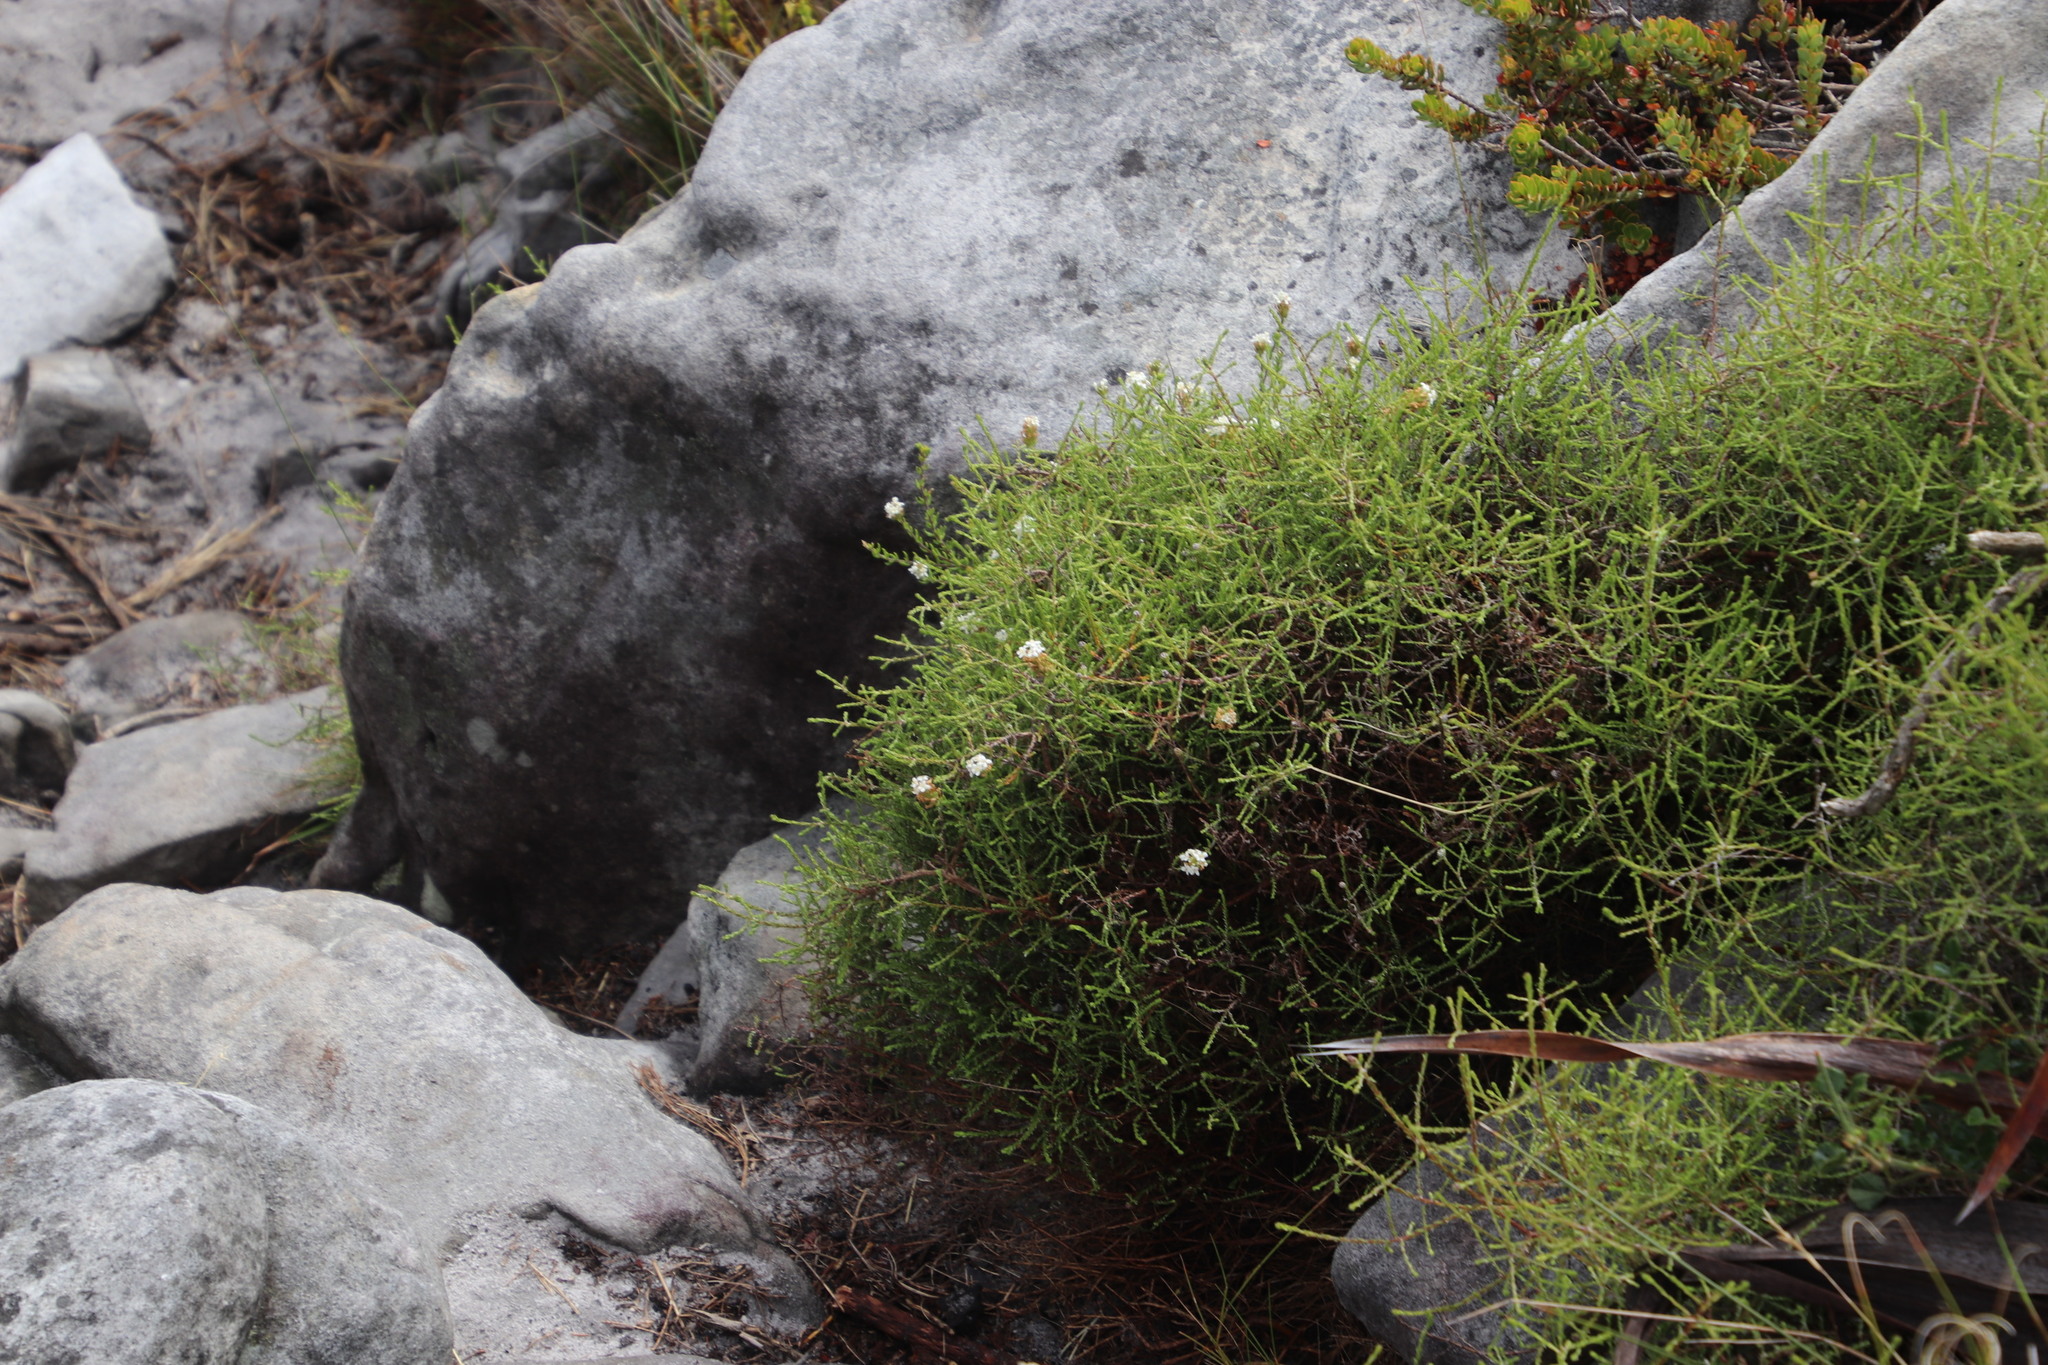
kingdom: Plantae
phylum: Tracheophyta
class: Magnoliopsida
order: Lamiales
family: Scrophulariaceae
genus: Selago
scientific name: Selago levynsiae
